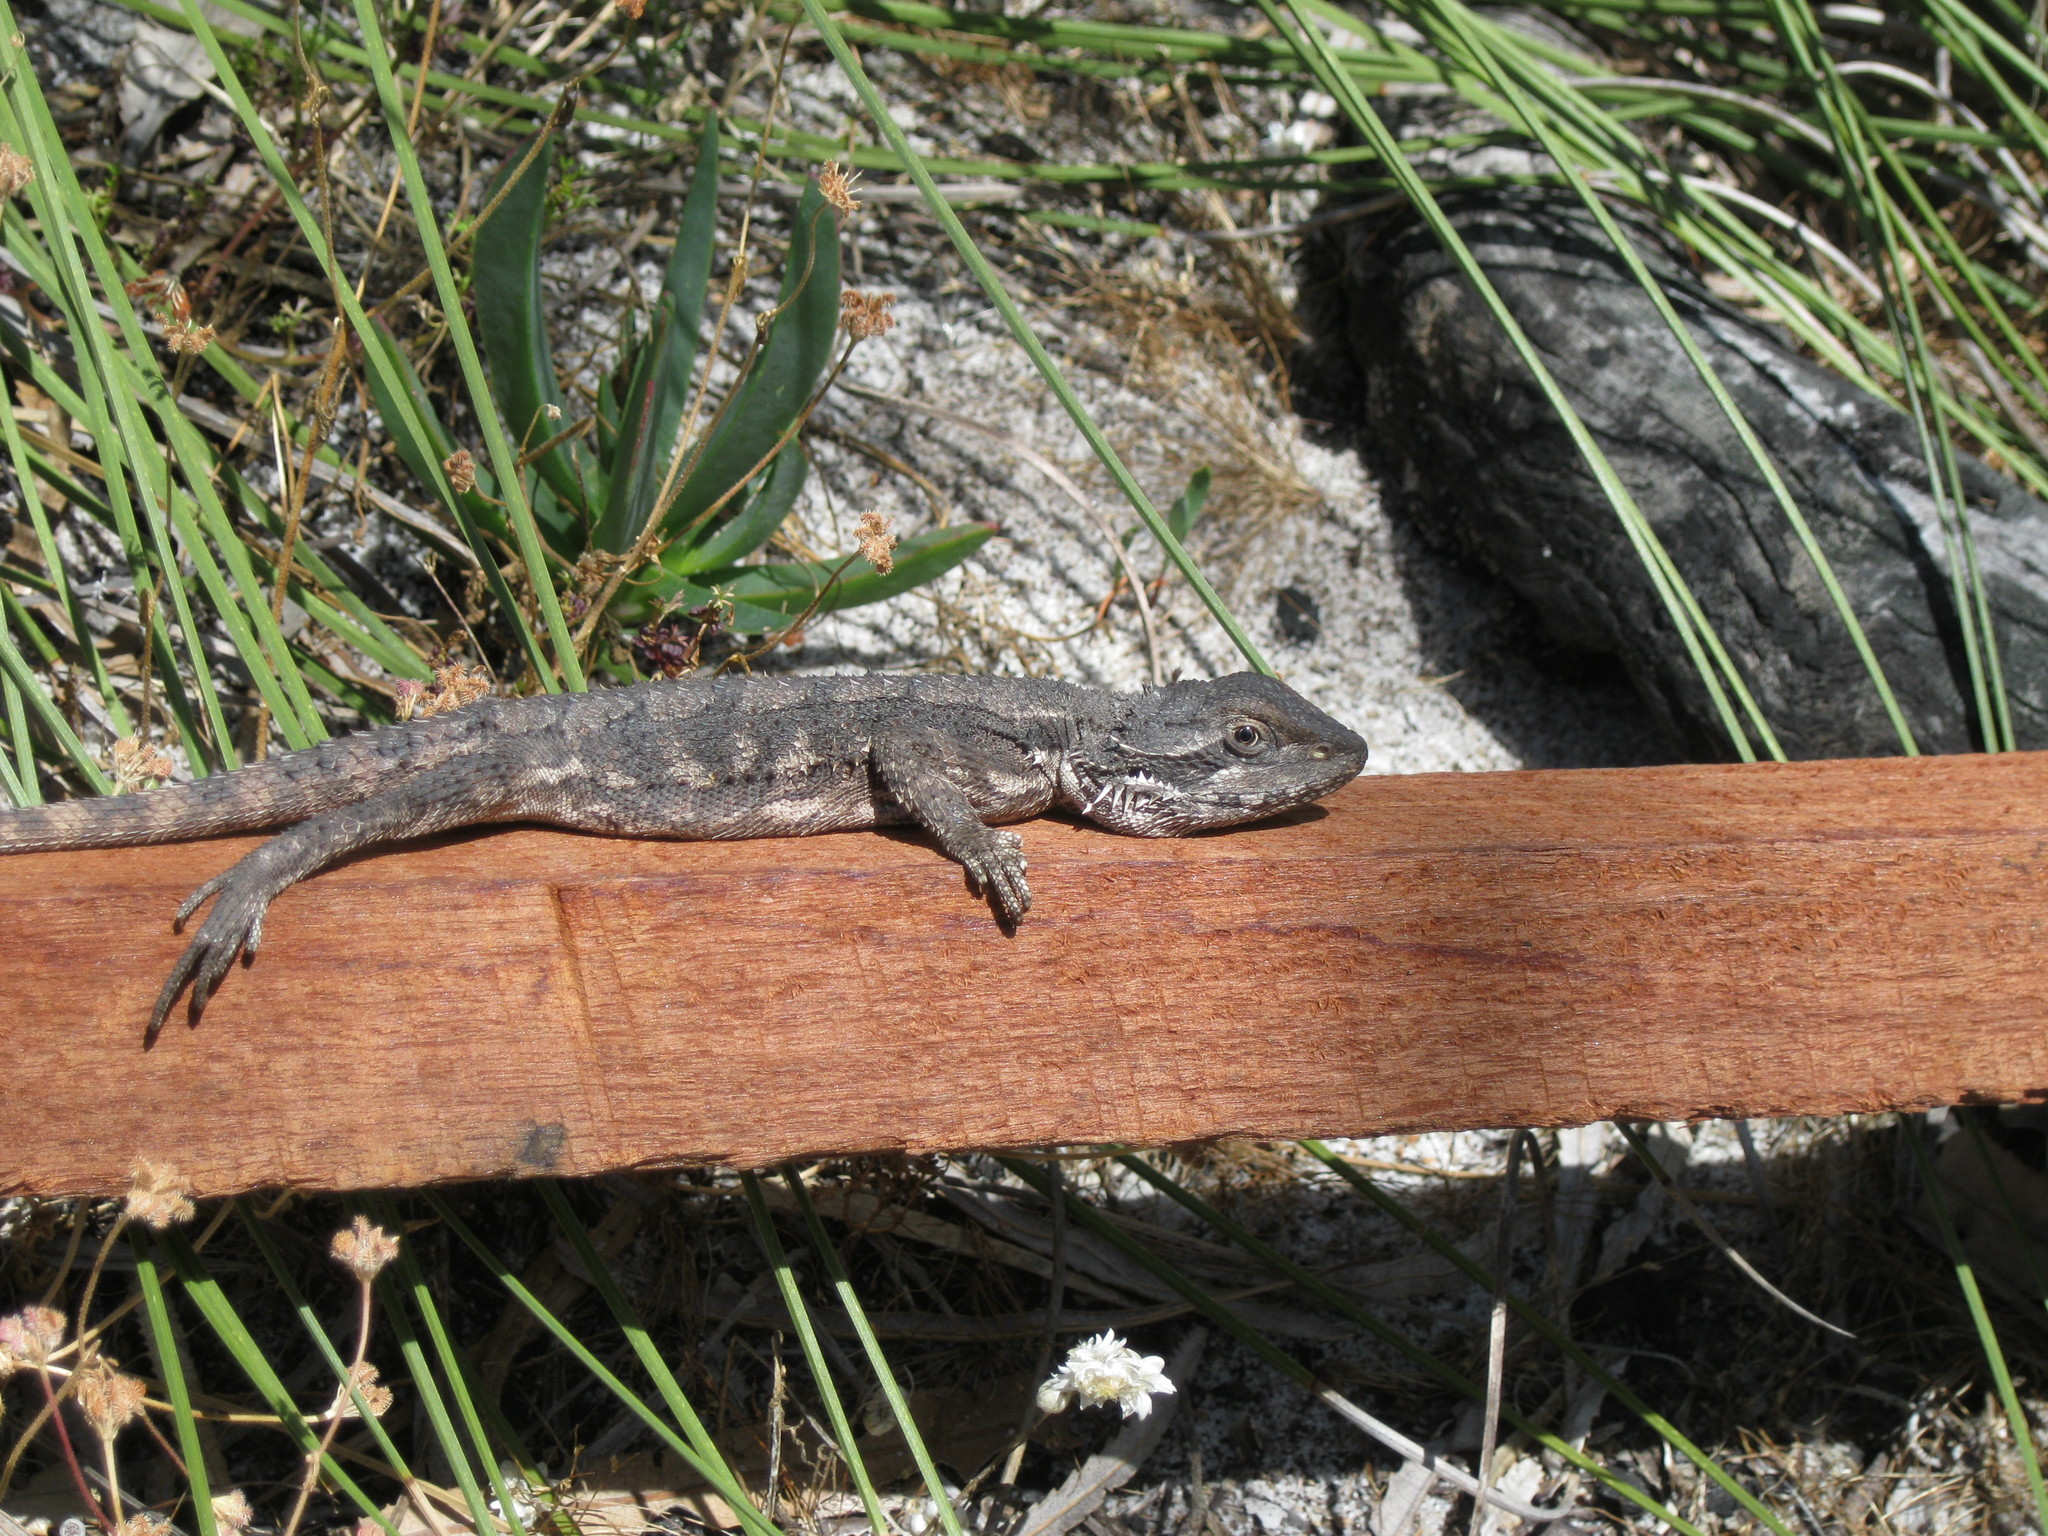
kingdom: Animalia
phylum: Chordata
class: Squamata
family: Agamidae
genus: Pogona
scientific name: Pogona minor
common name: Dwarf bearded dragon
